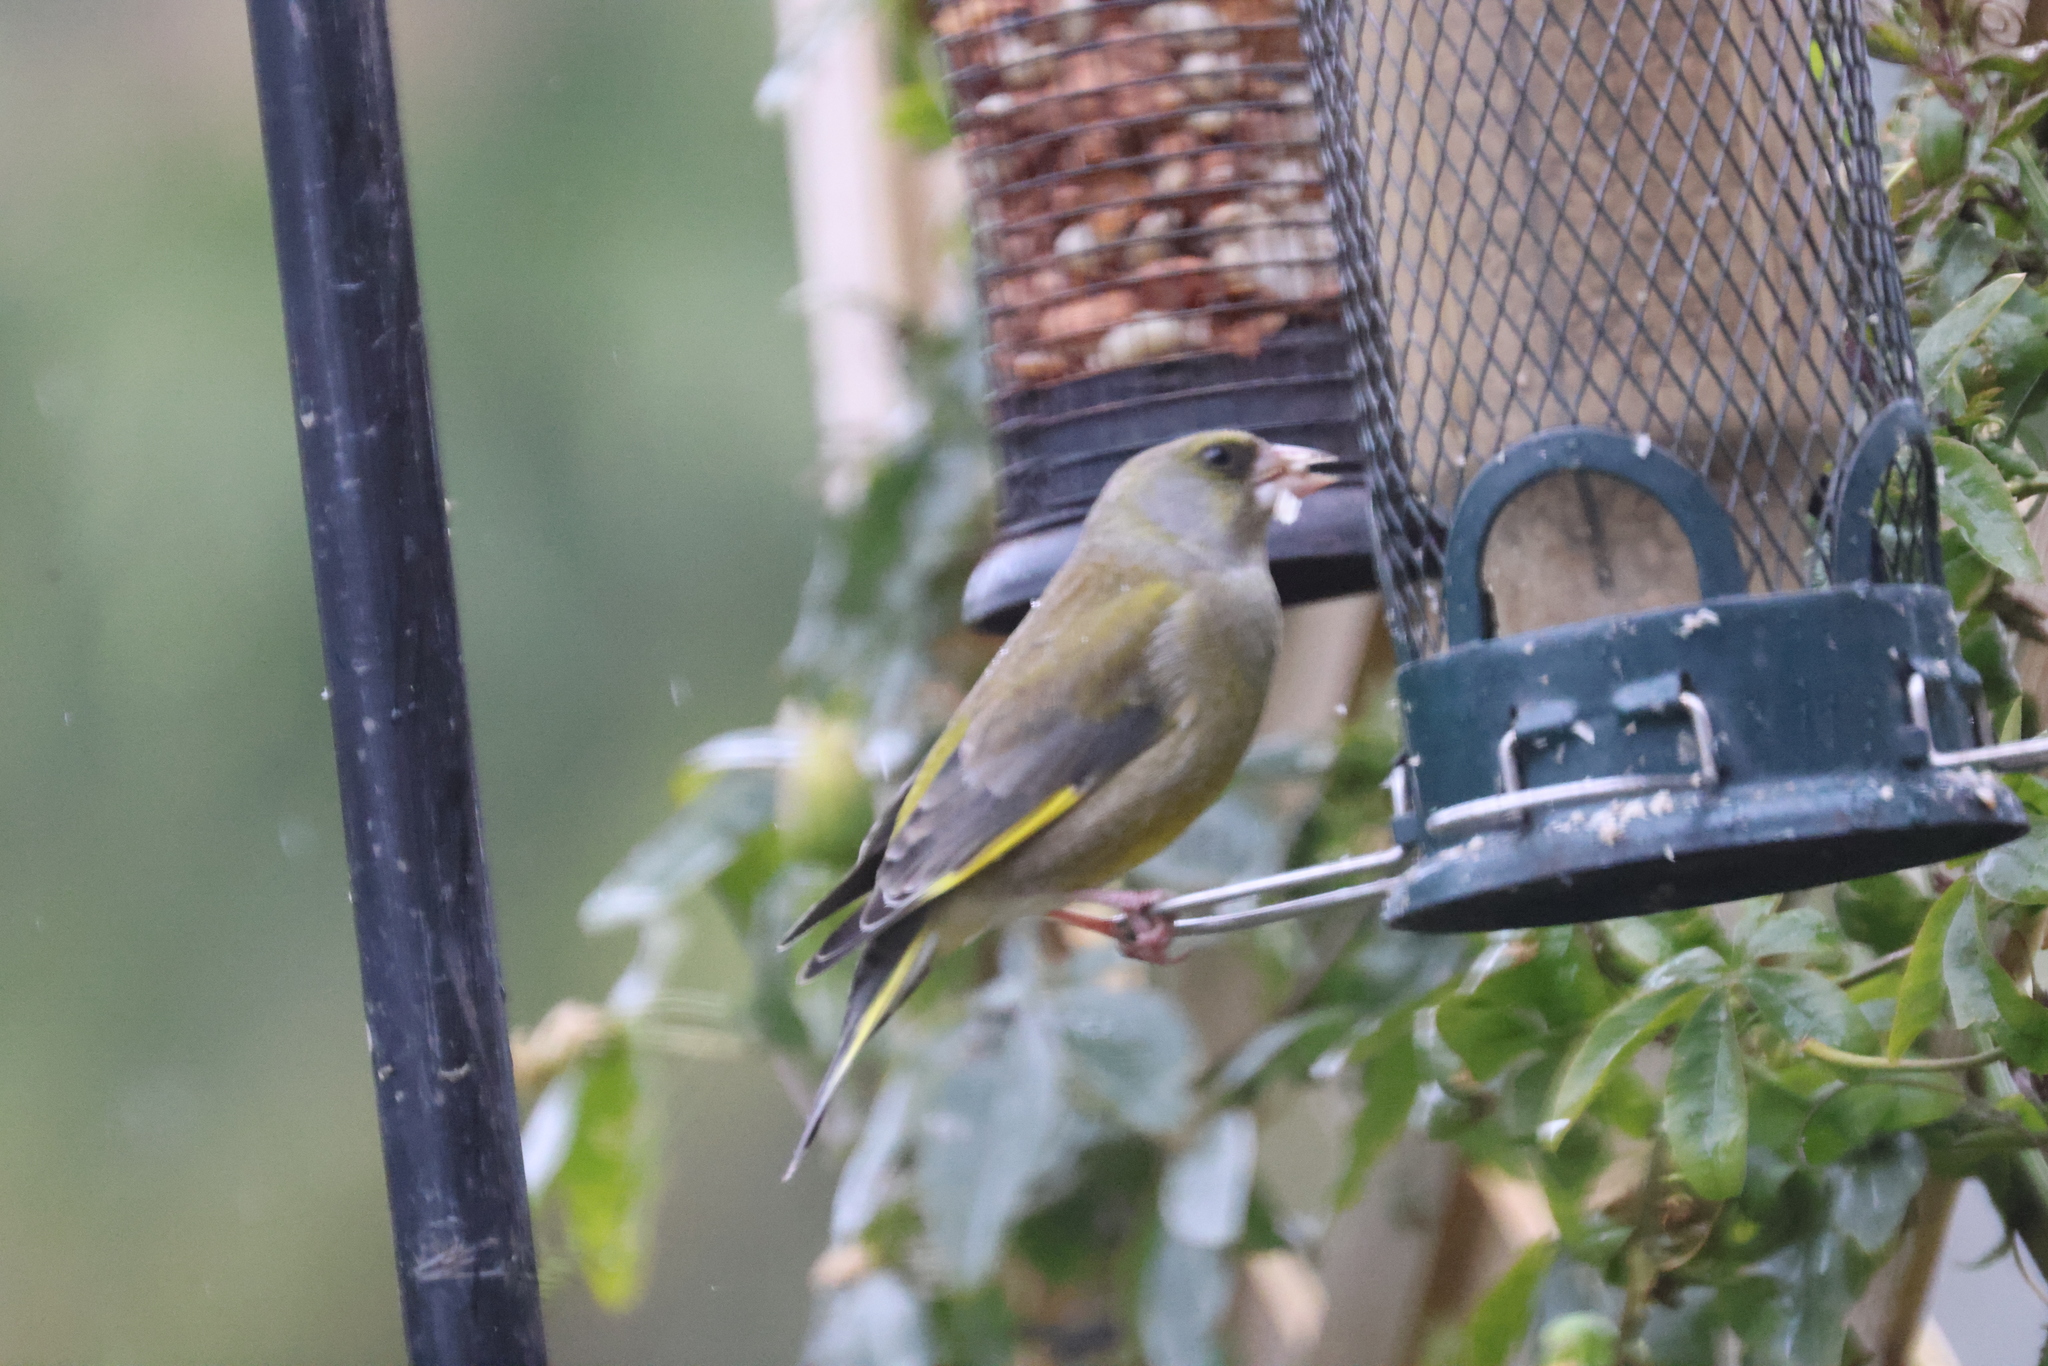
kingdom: Plantae
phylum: Tracheophyta
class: Liliopsida
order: Poales
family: Poaceae
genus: Chloris
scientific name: Chloris chloris
